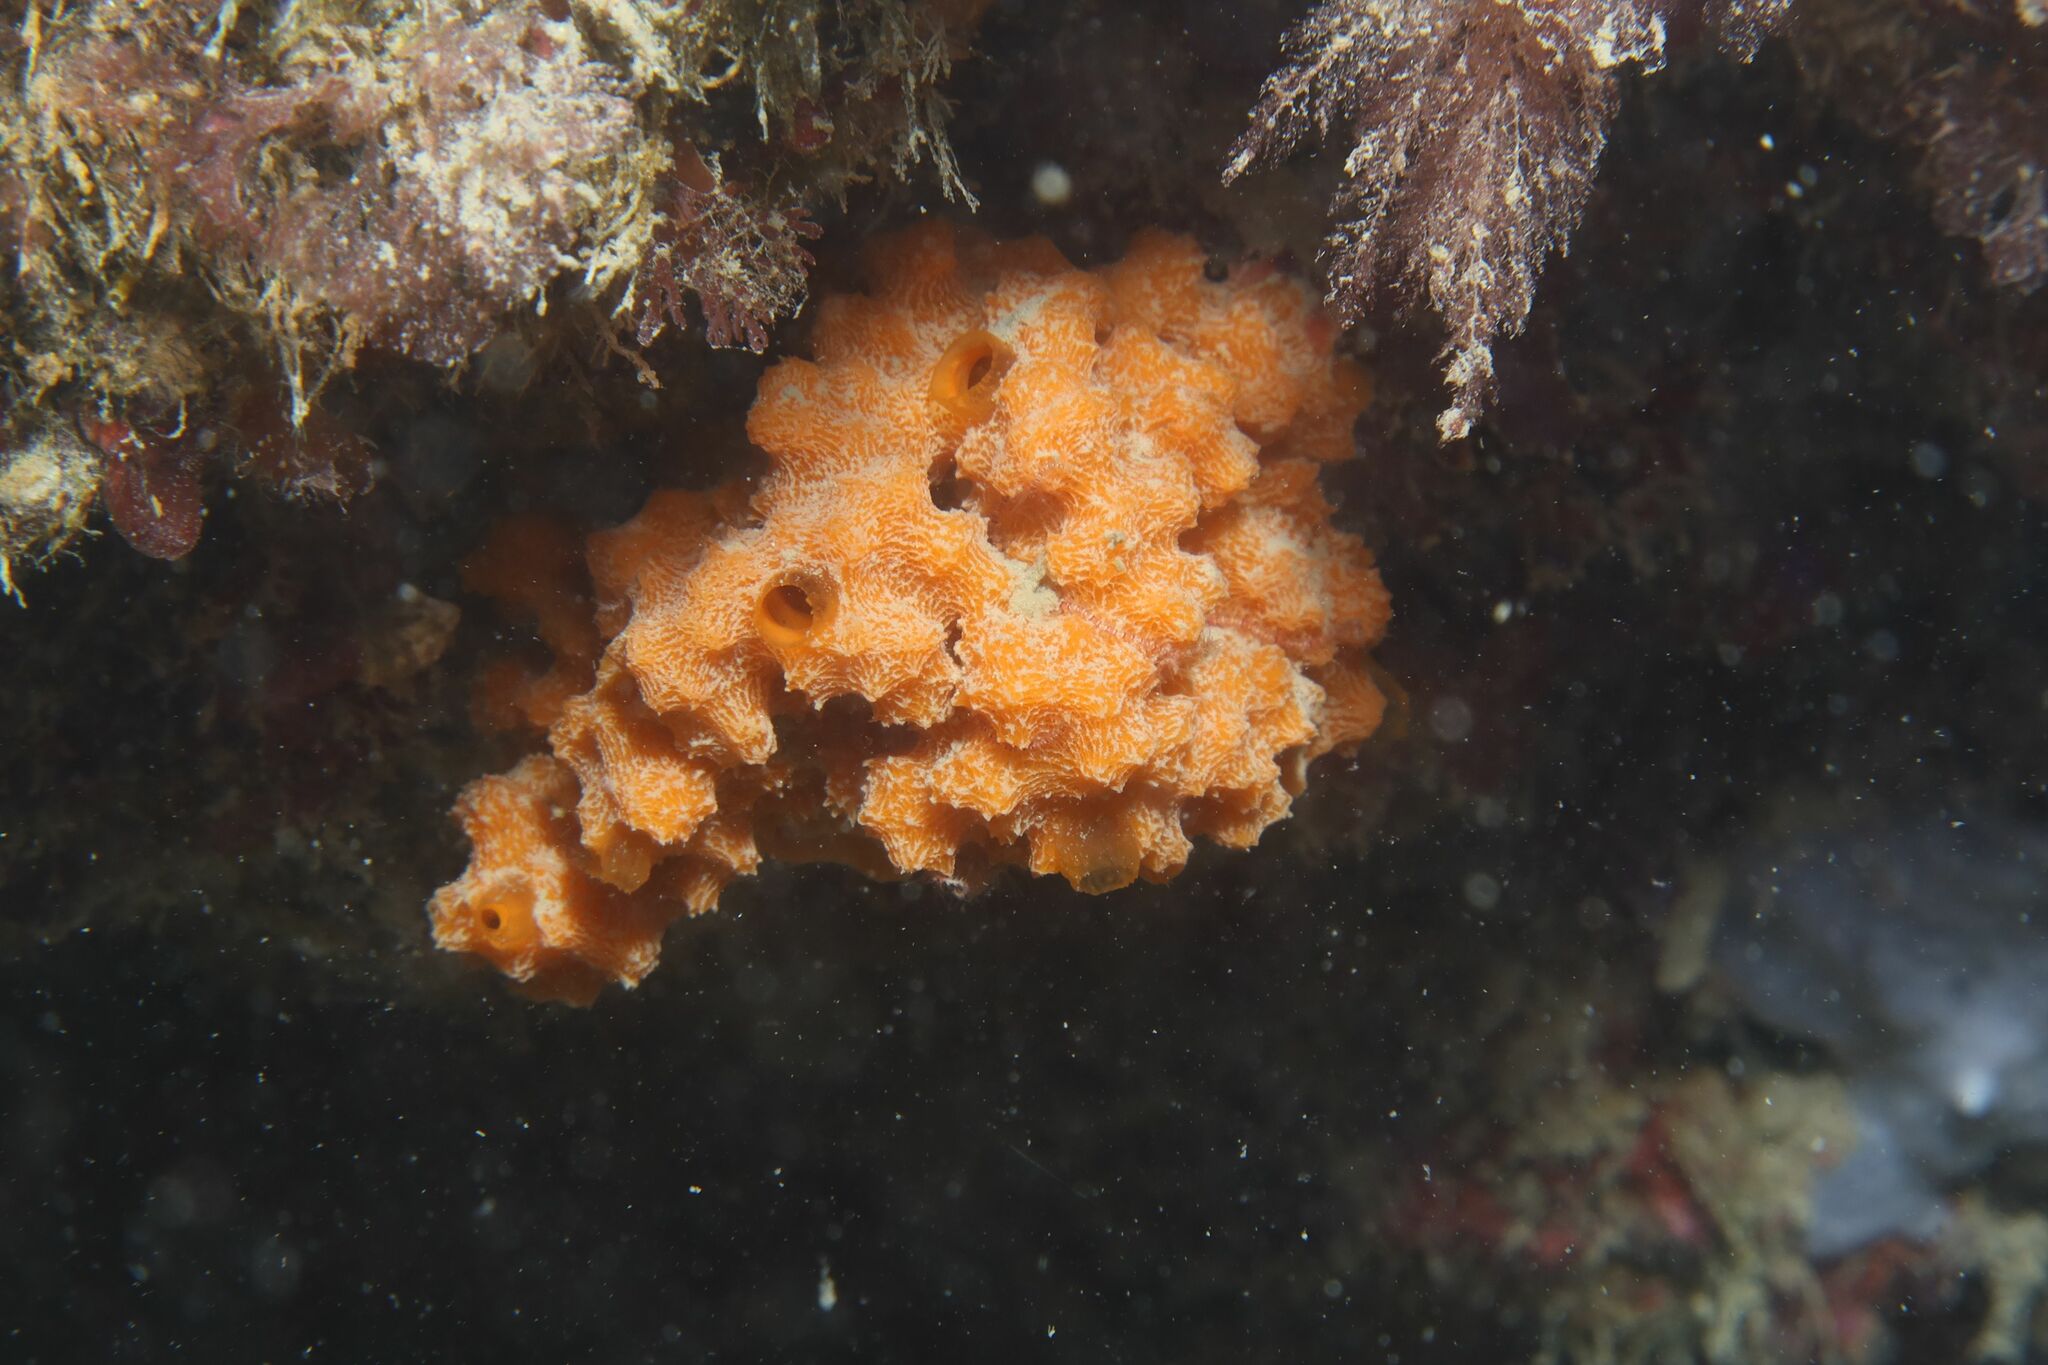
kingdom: Animalia
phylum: Porifera
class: Demospongiae
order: Bubarida
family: Dictyonellidae
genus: Acanthella
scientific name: Acanthella acuta
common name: Cactus sponge
